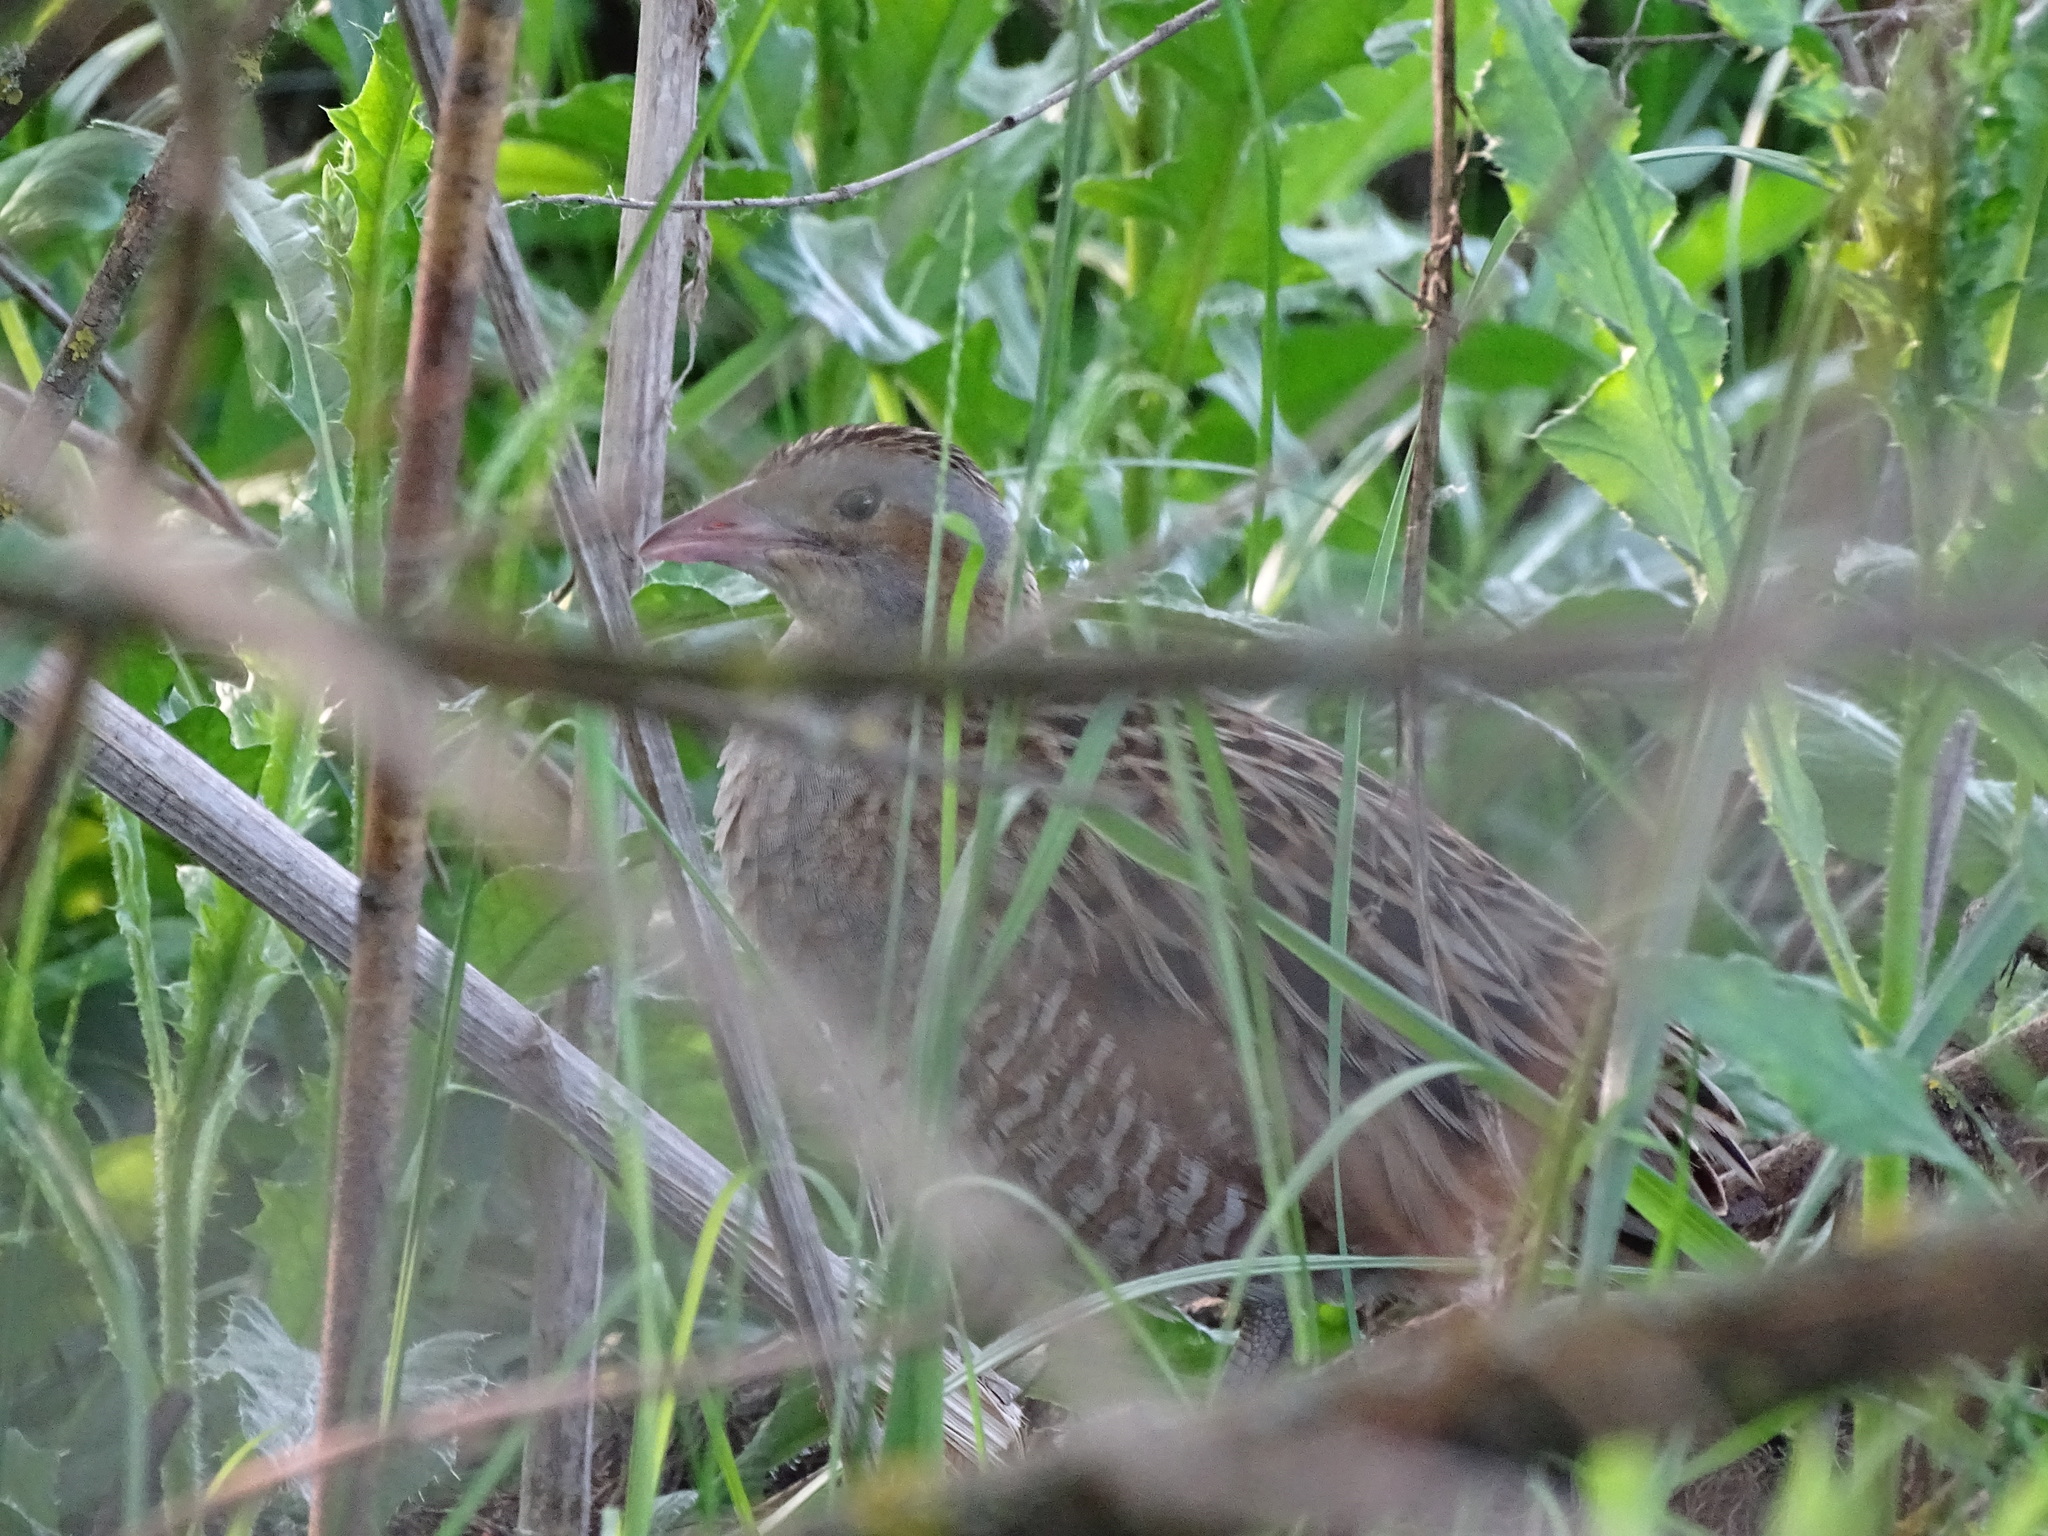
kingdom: Animalia
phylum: Chordata
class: Aves
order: Gruiformes
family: Rallidae
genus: Crex
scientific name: Crex crex
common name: Corn crake
